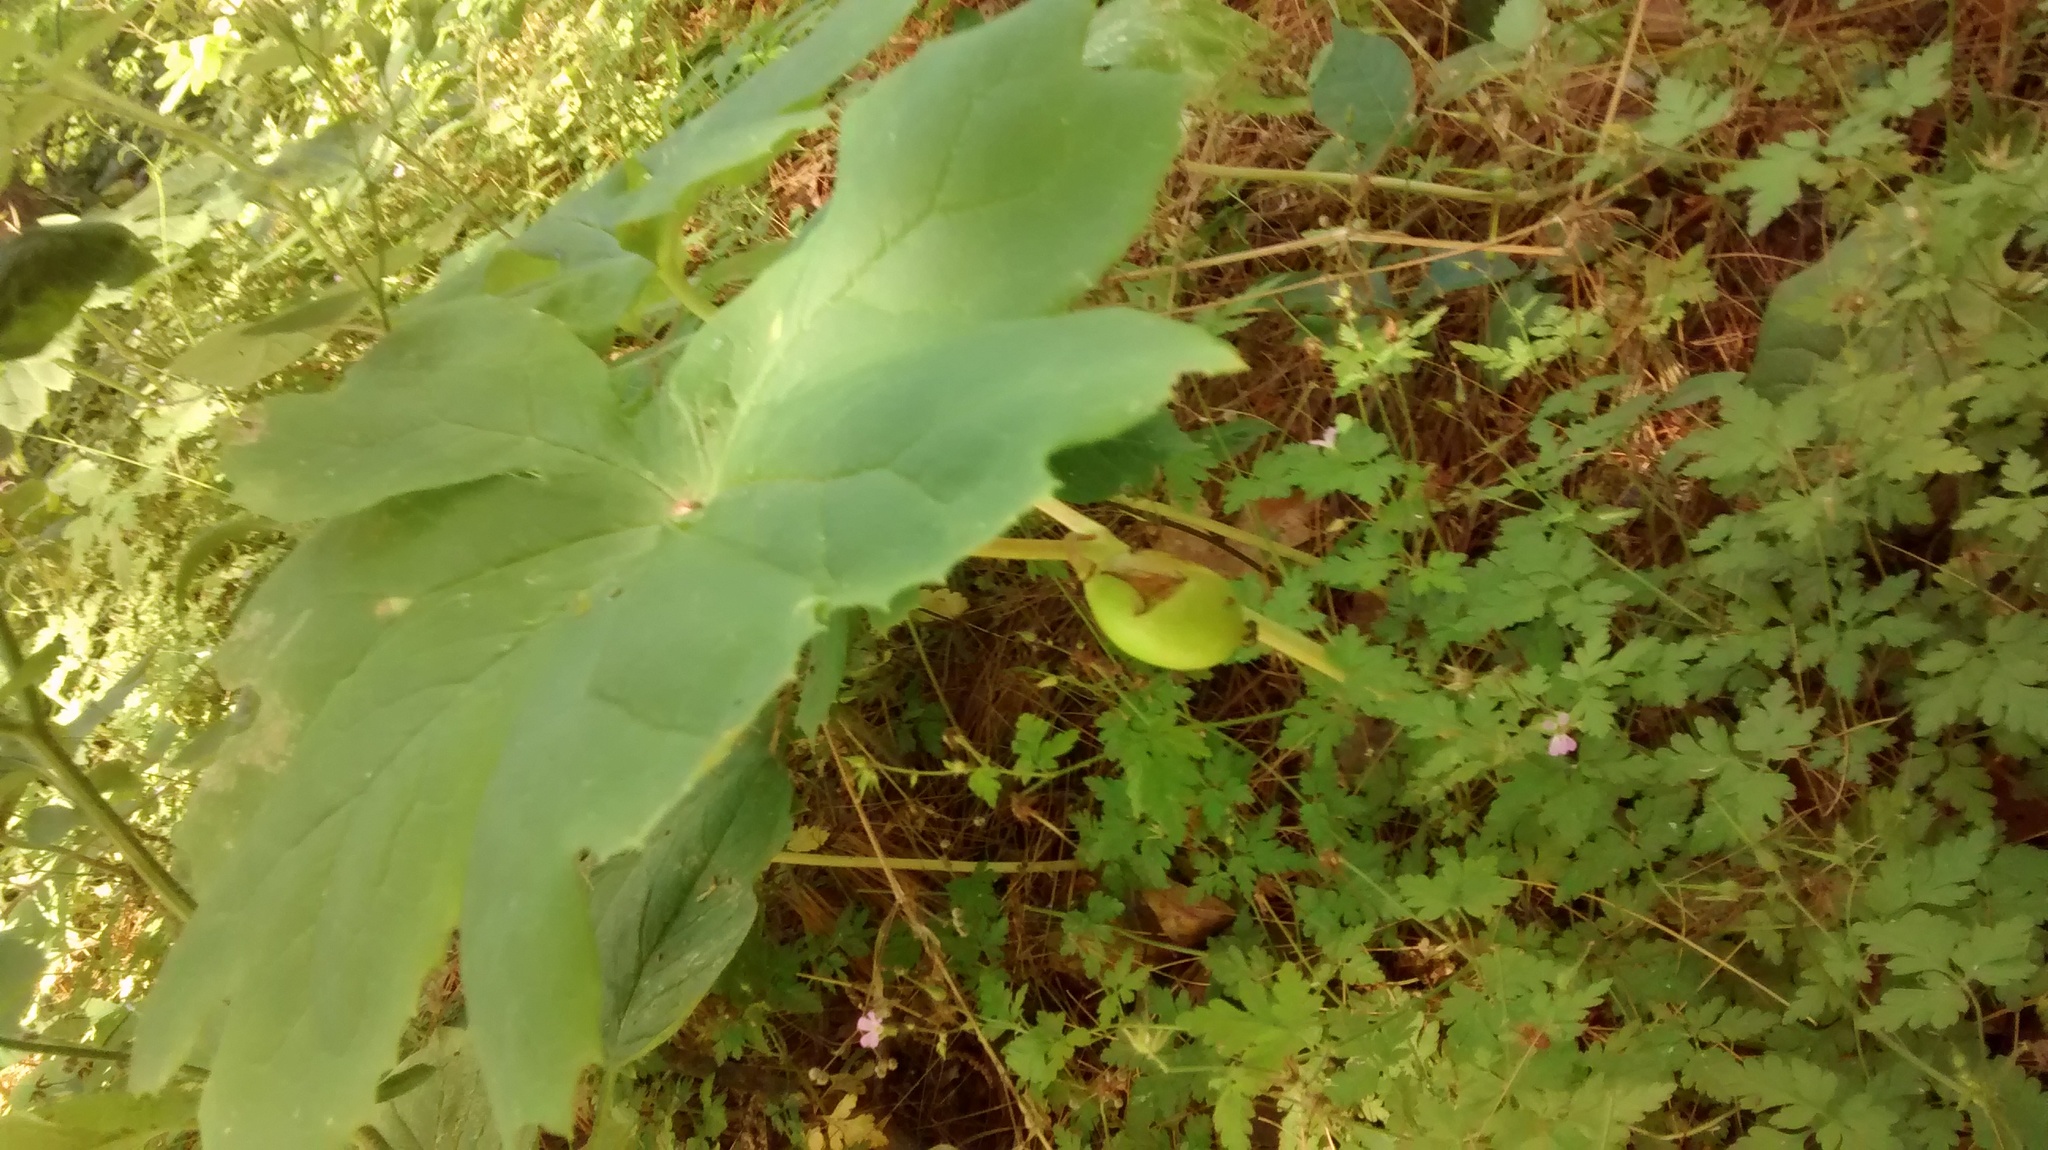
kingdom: Plantae
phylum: Tracheophyta
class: Magnoliopsida
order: Ranunculales
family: Berberidaceae
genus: Podophyllum
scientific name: Podophyllum peltatum
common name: Wild mandrake
